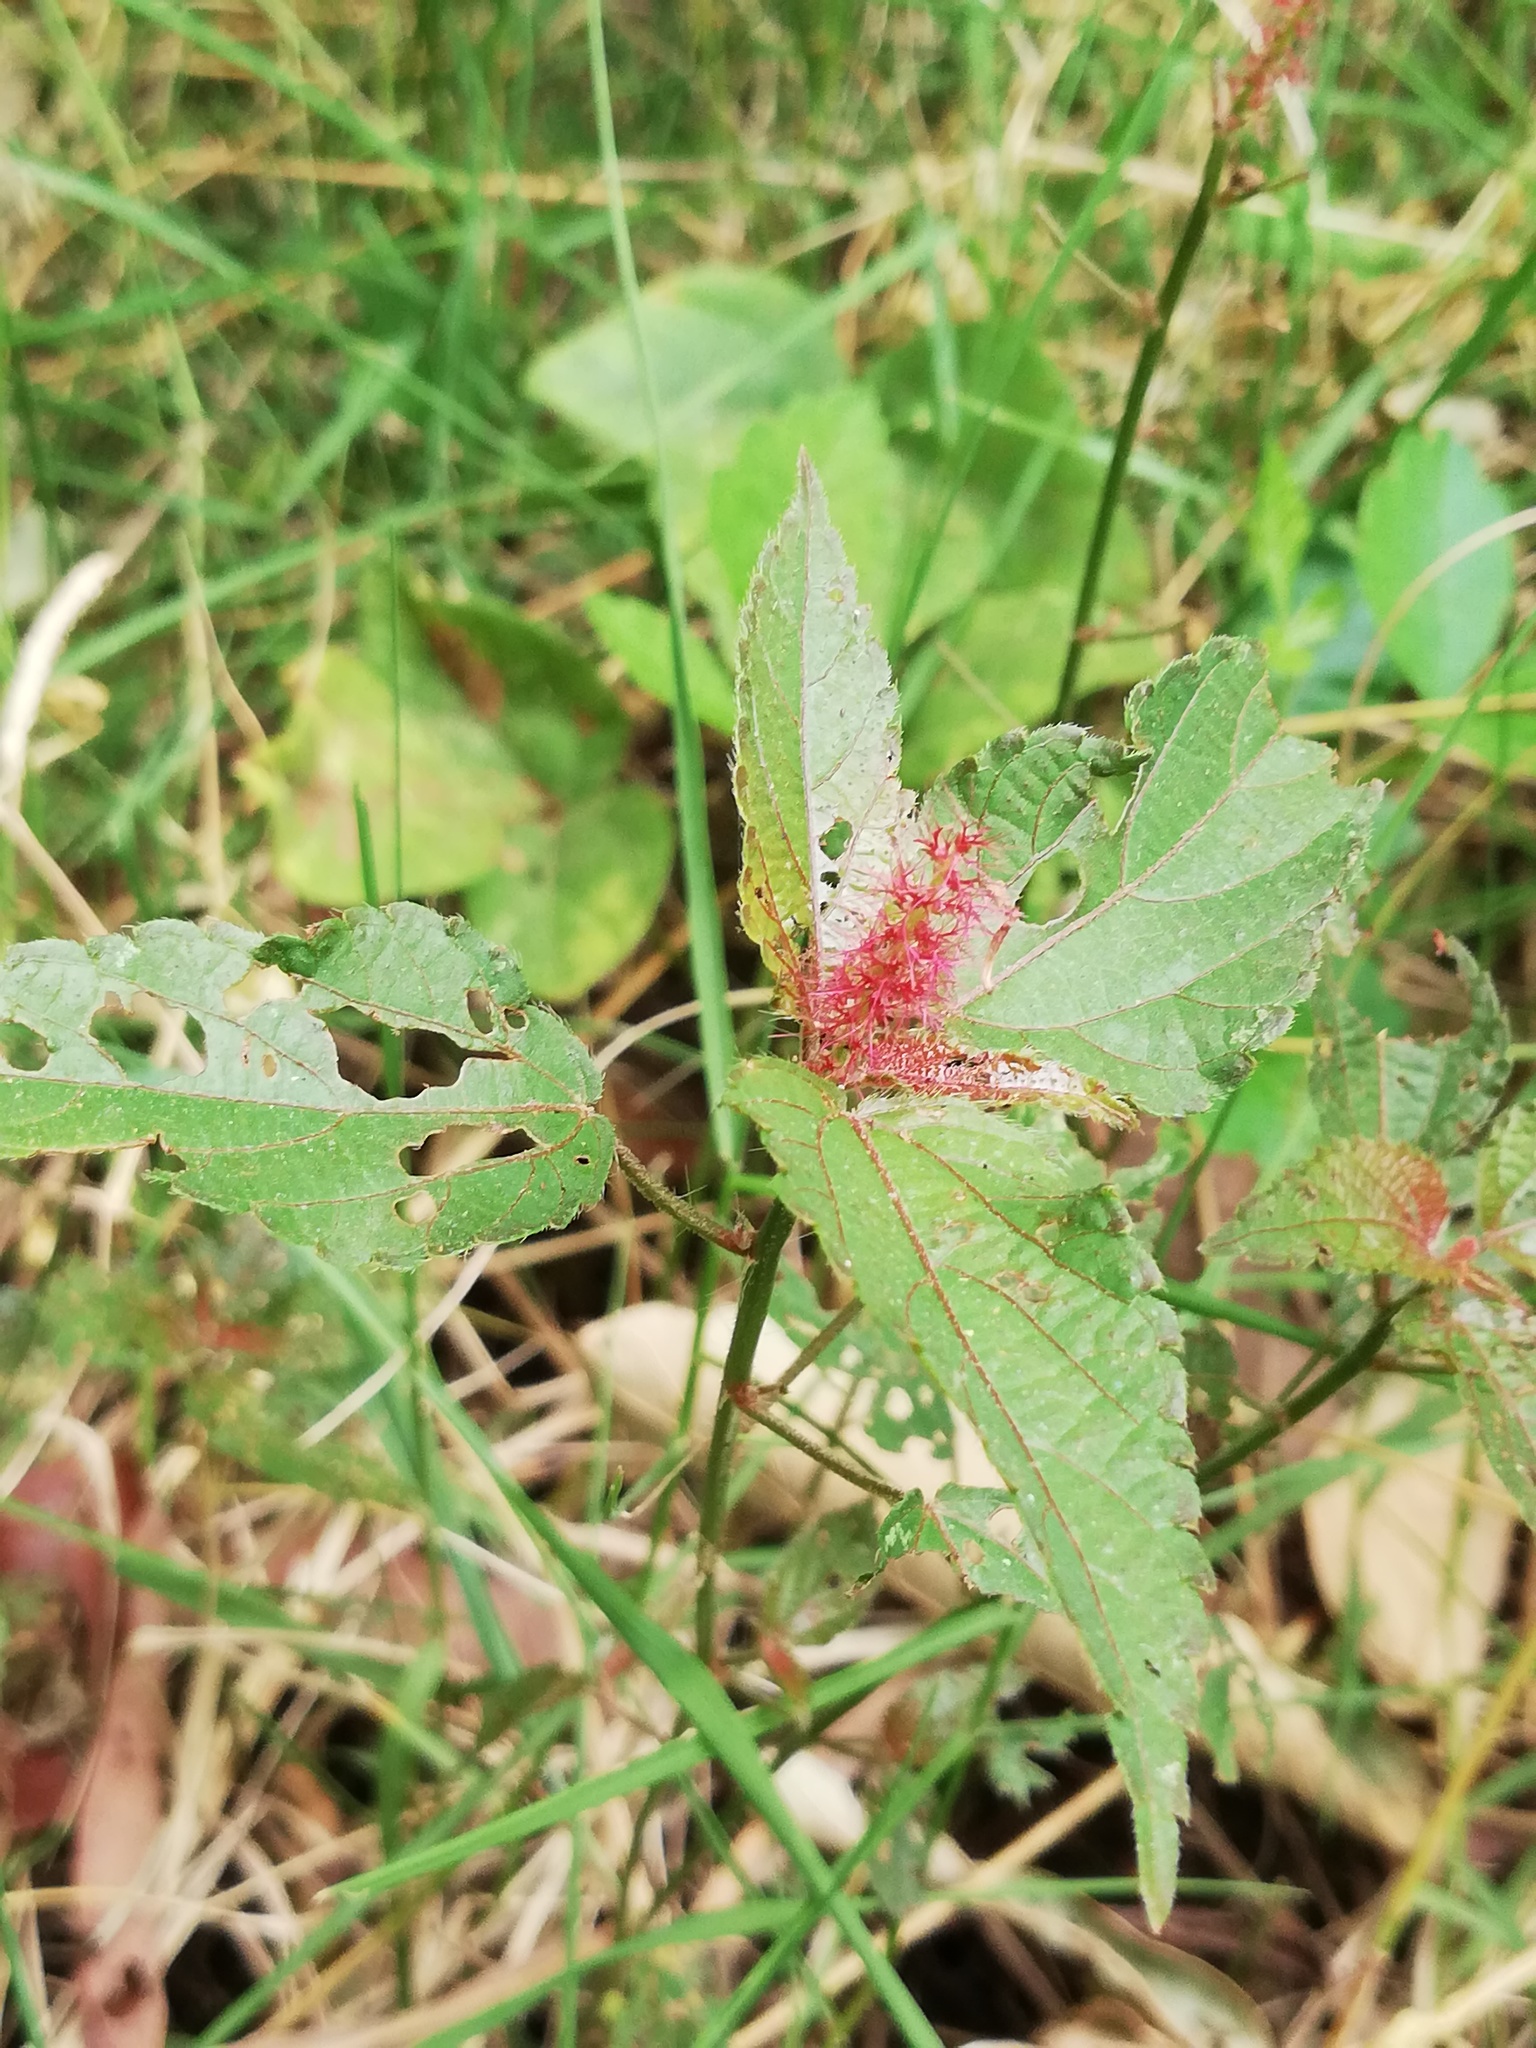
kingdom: Plantae
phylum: Tracheophyta
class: Magnoliopsida
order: Malpighiales
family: Euphorbiaceae
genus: Acalypha
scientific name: Acalypha phleoides
